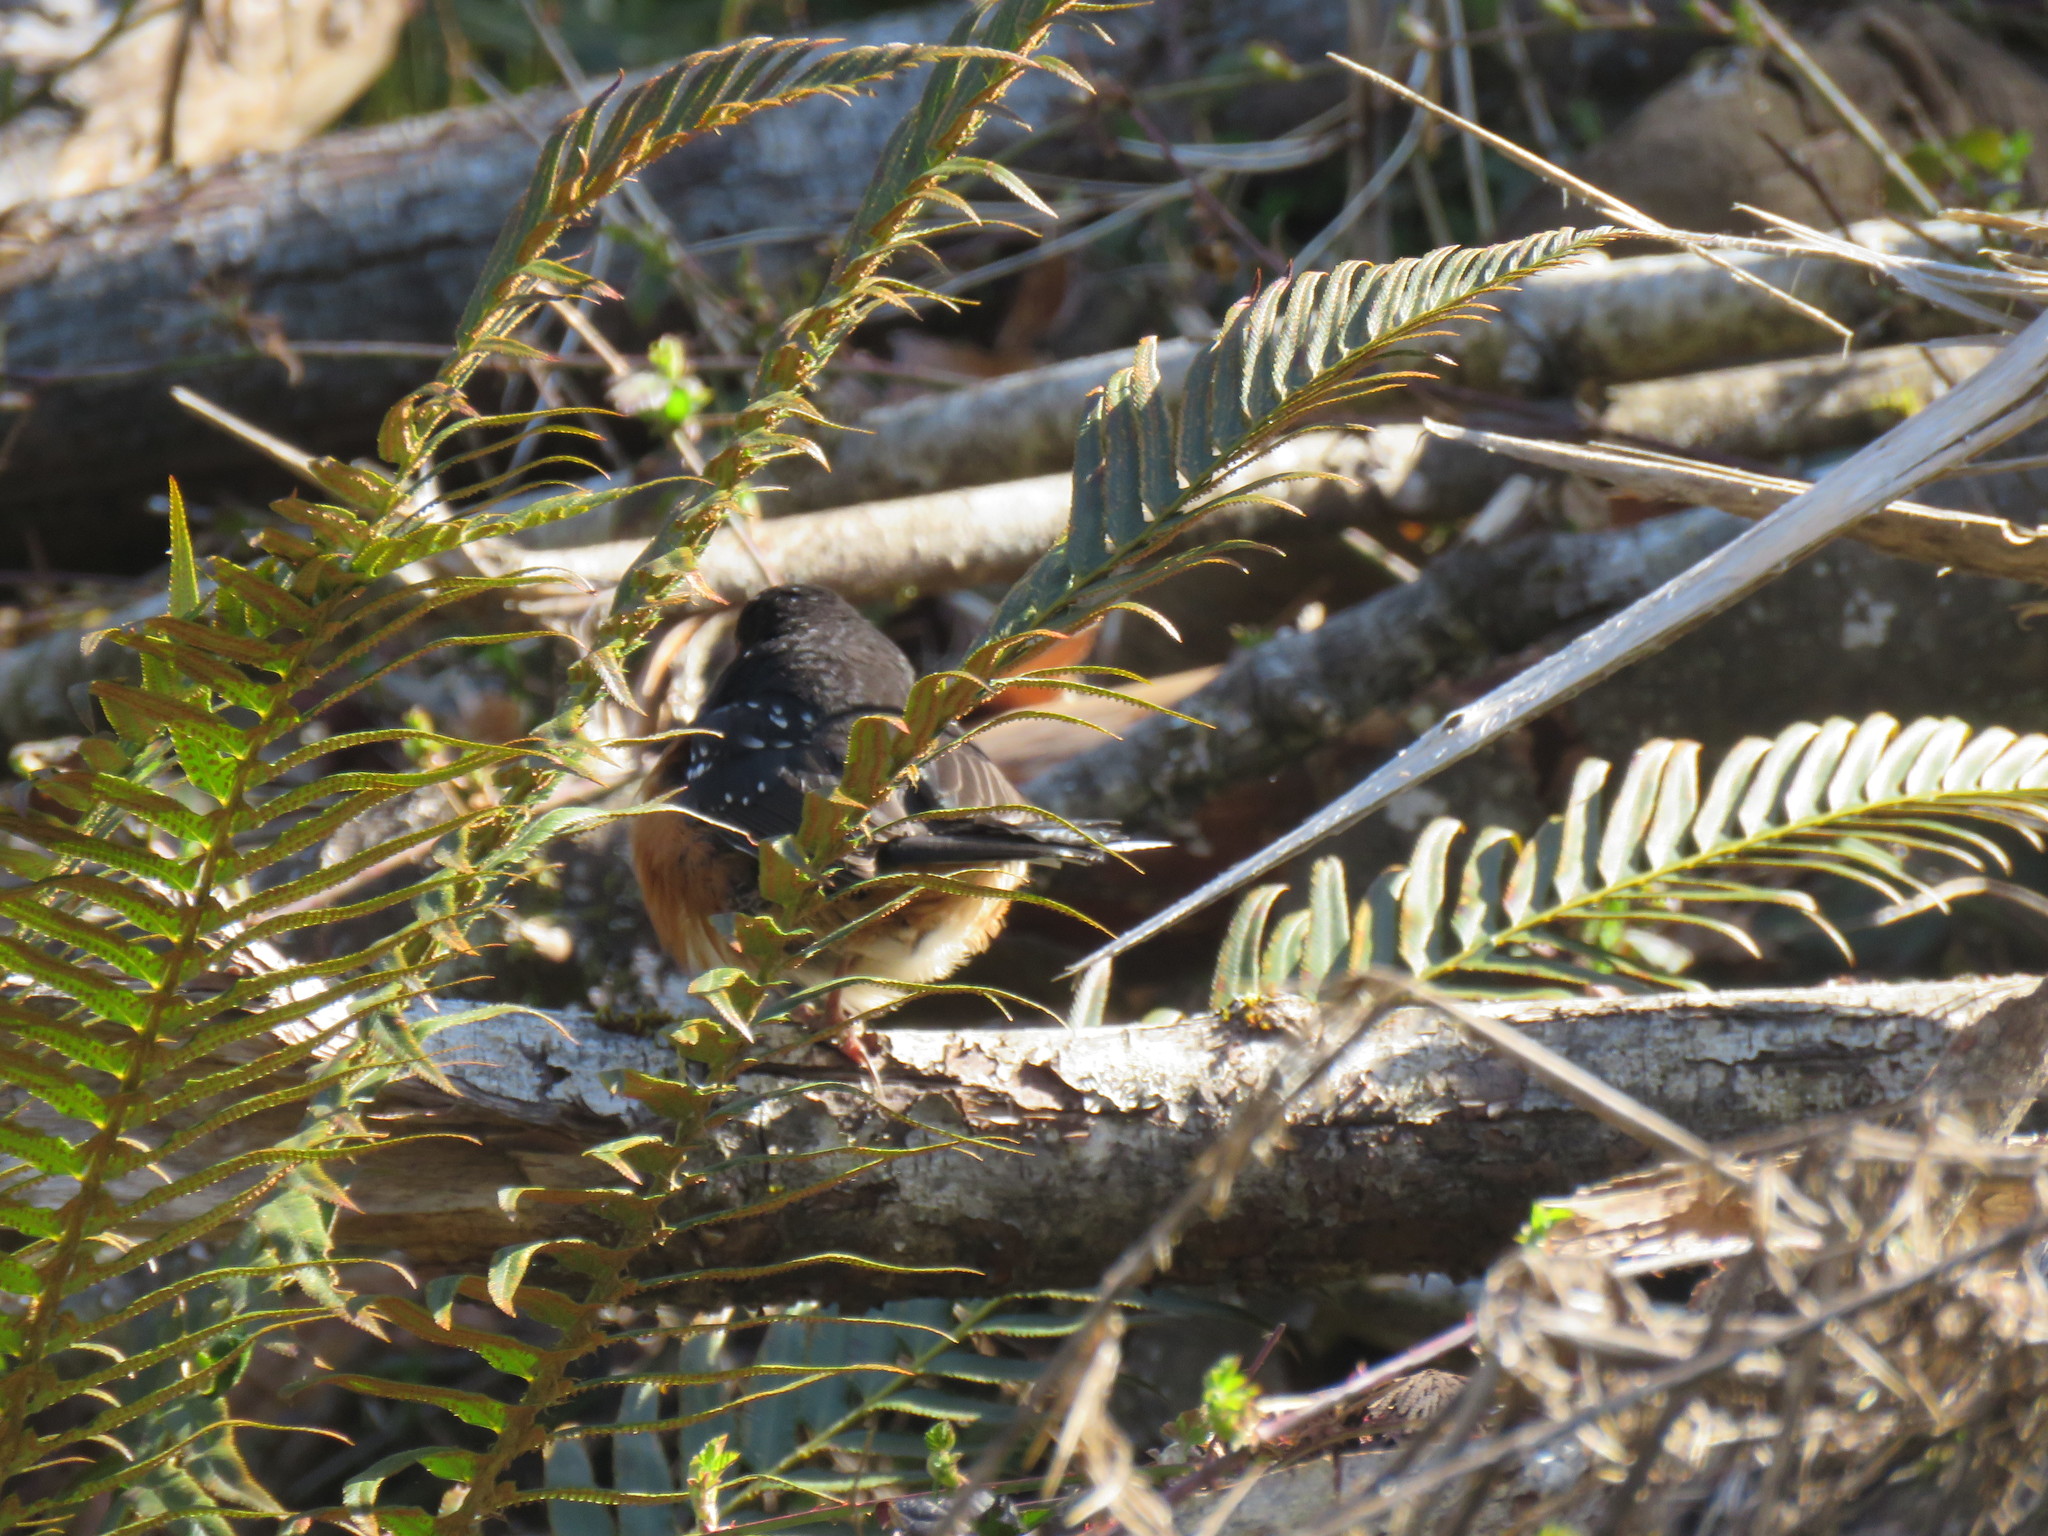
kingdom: Animalia
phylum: Chordata
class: Aves
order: Passeriformes
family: Passerellidae
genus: Pipilo
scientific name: Pipilo maculatus
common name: Spotted towhee
